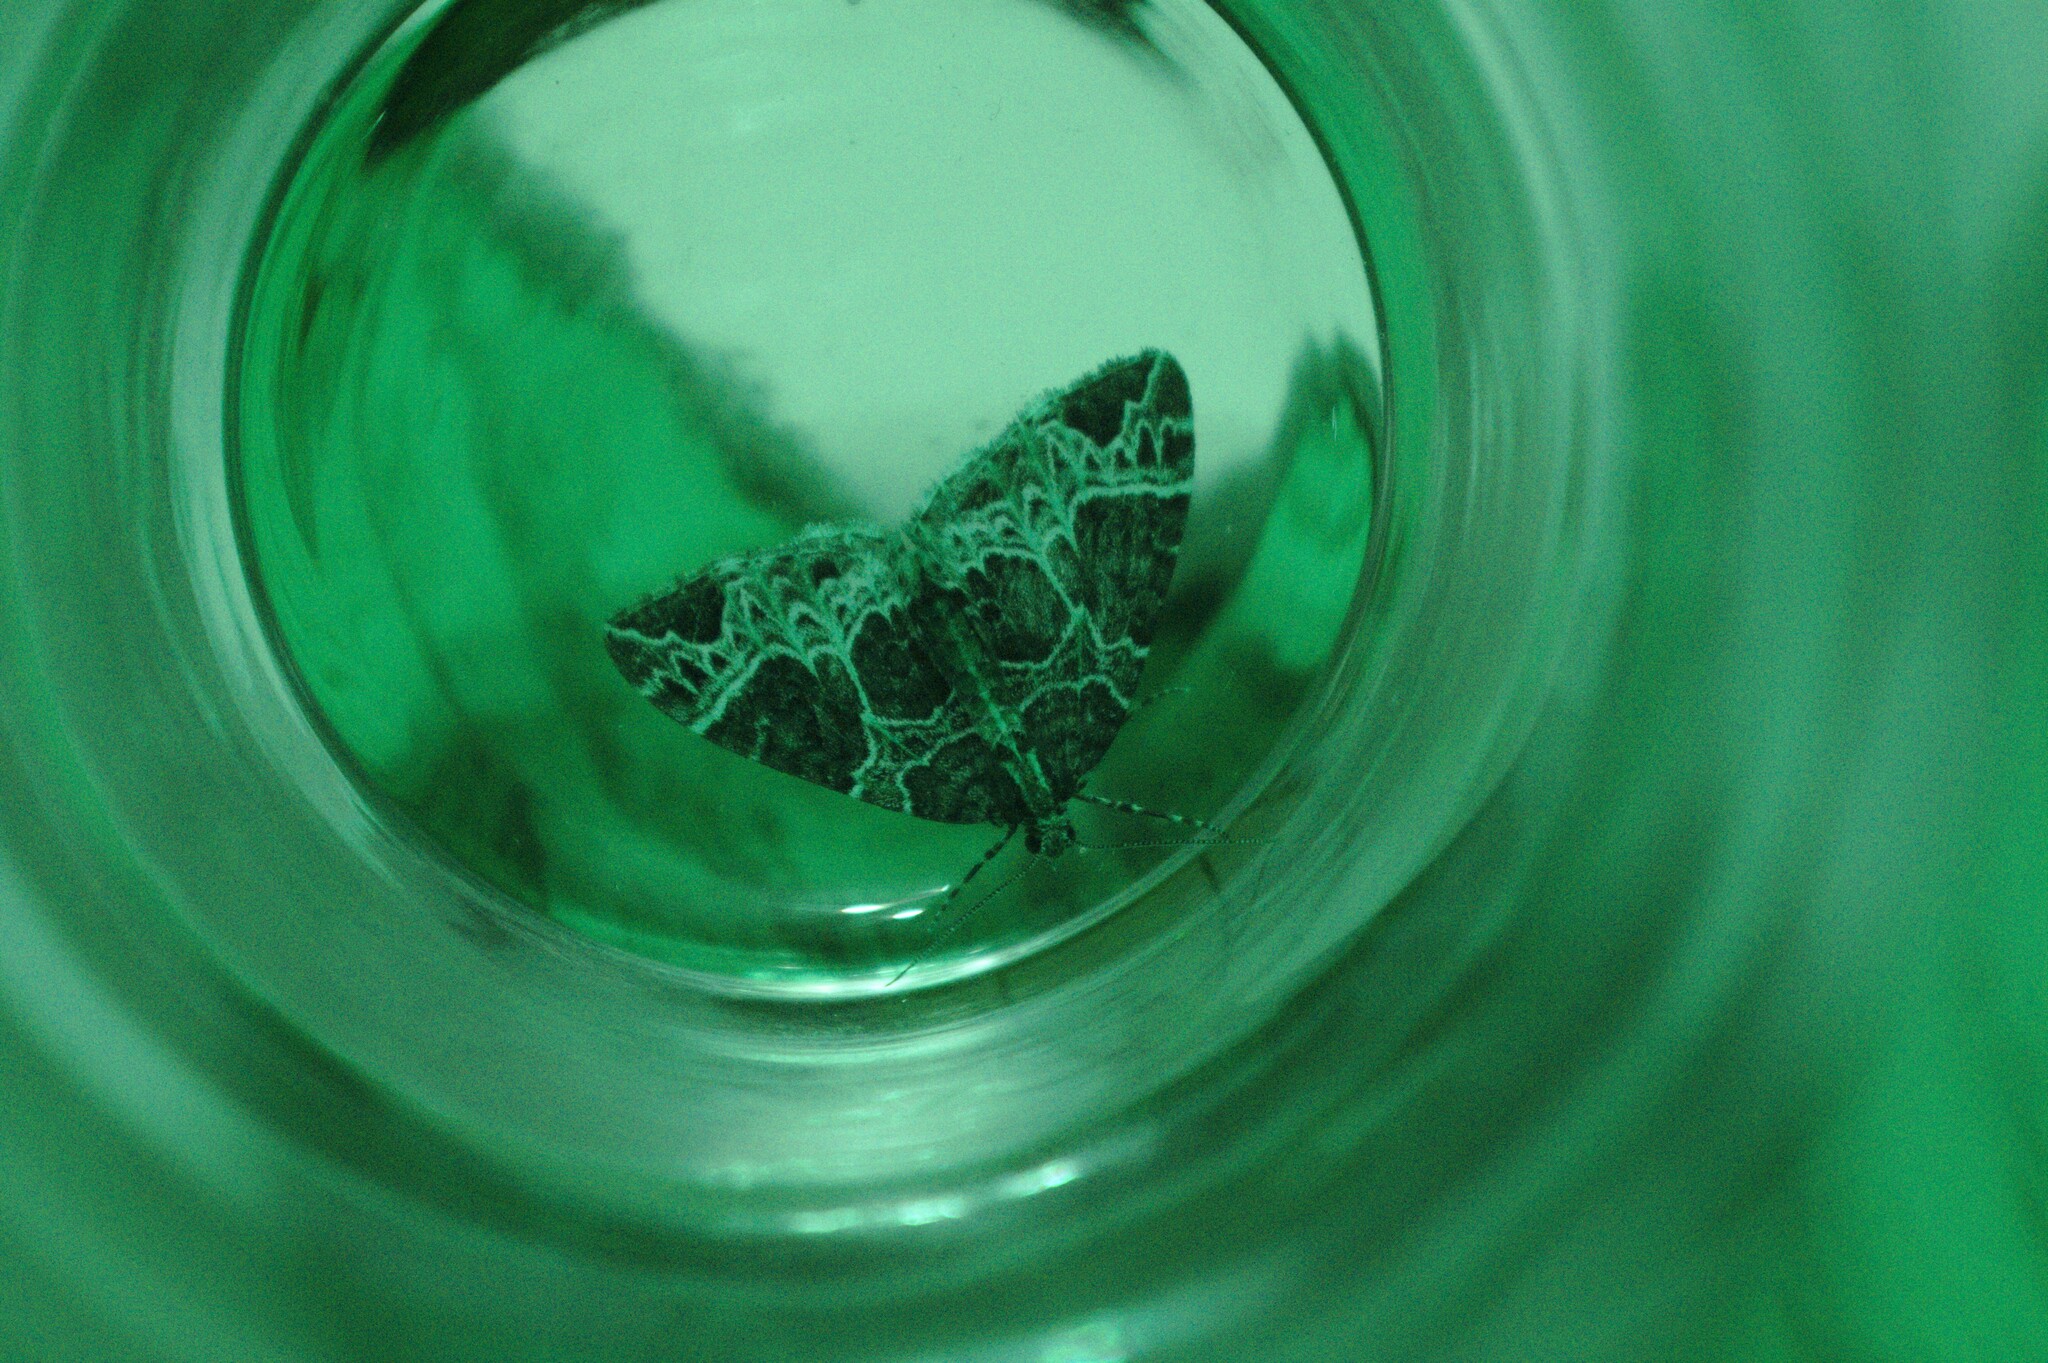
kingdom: Animalia
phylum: Arthropoda
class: Insecta
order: Lepidoptera
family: Geometridae
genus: Ecliptopera
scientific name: Ecliptopera silaceata
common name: Small phoenix
